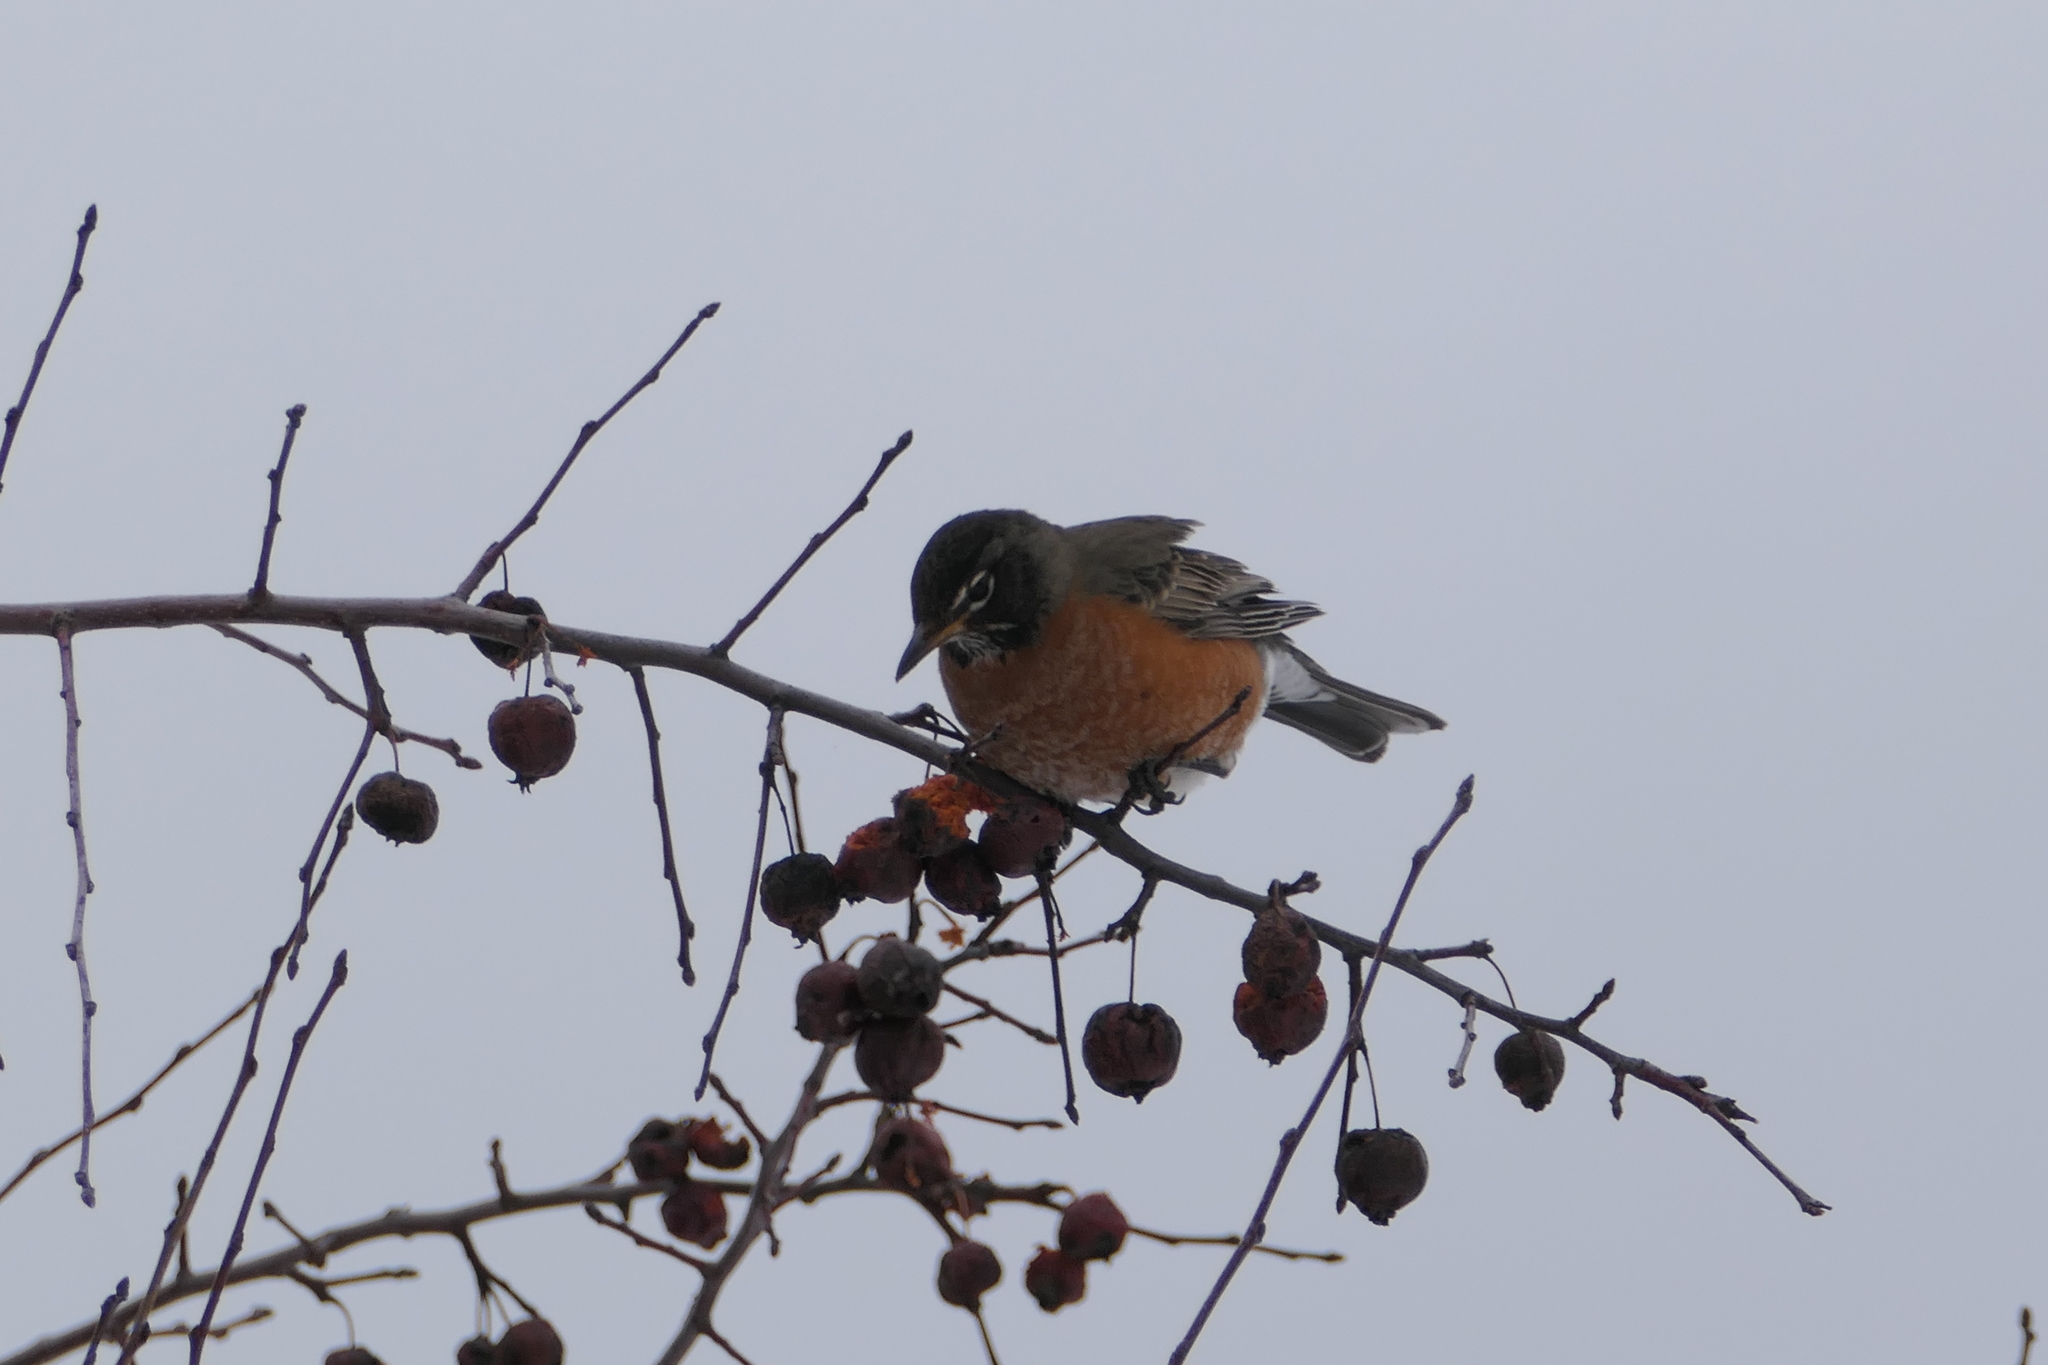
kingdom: Animalia
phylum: Chordata
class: Aves
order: Passeriformes
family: Turdidae
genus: Turdus
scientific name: Turdus migratorius
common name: American robin
